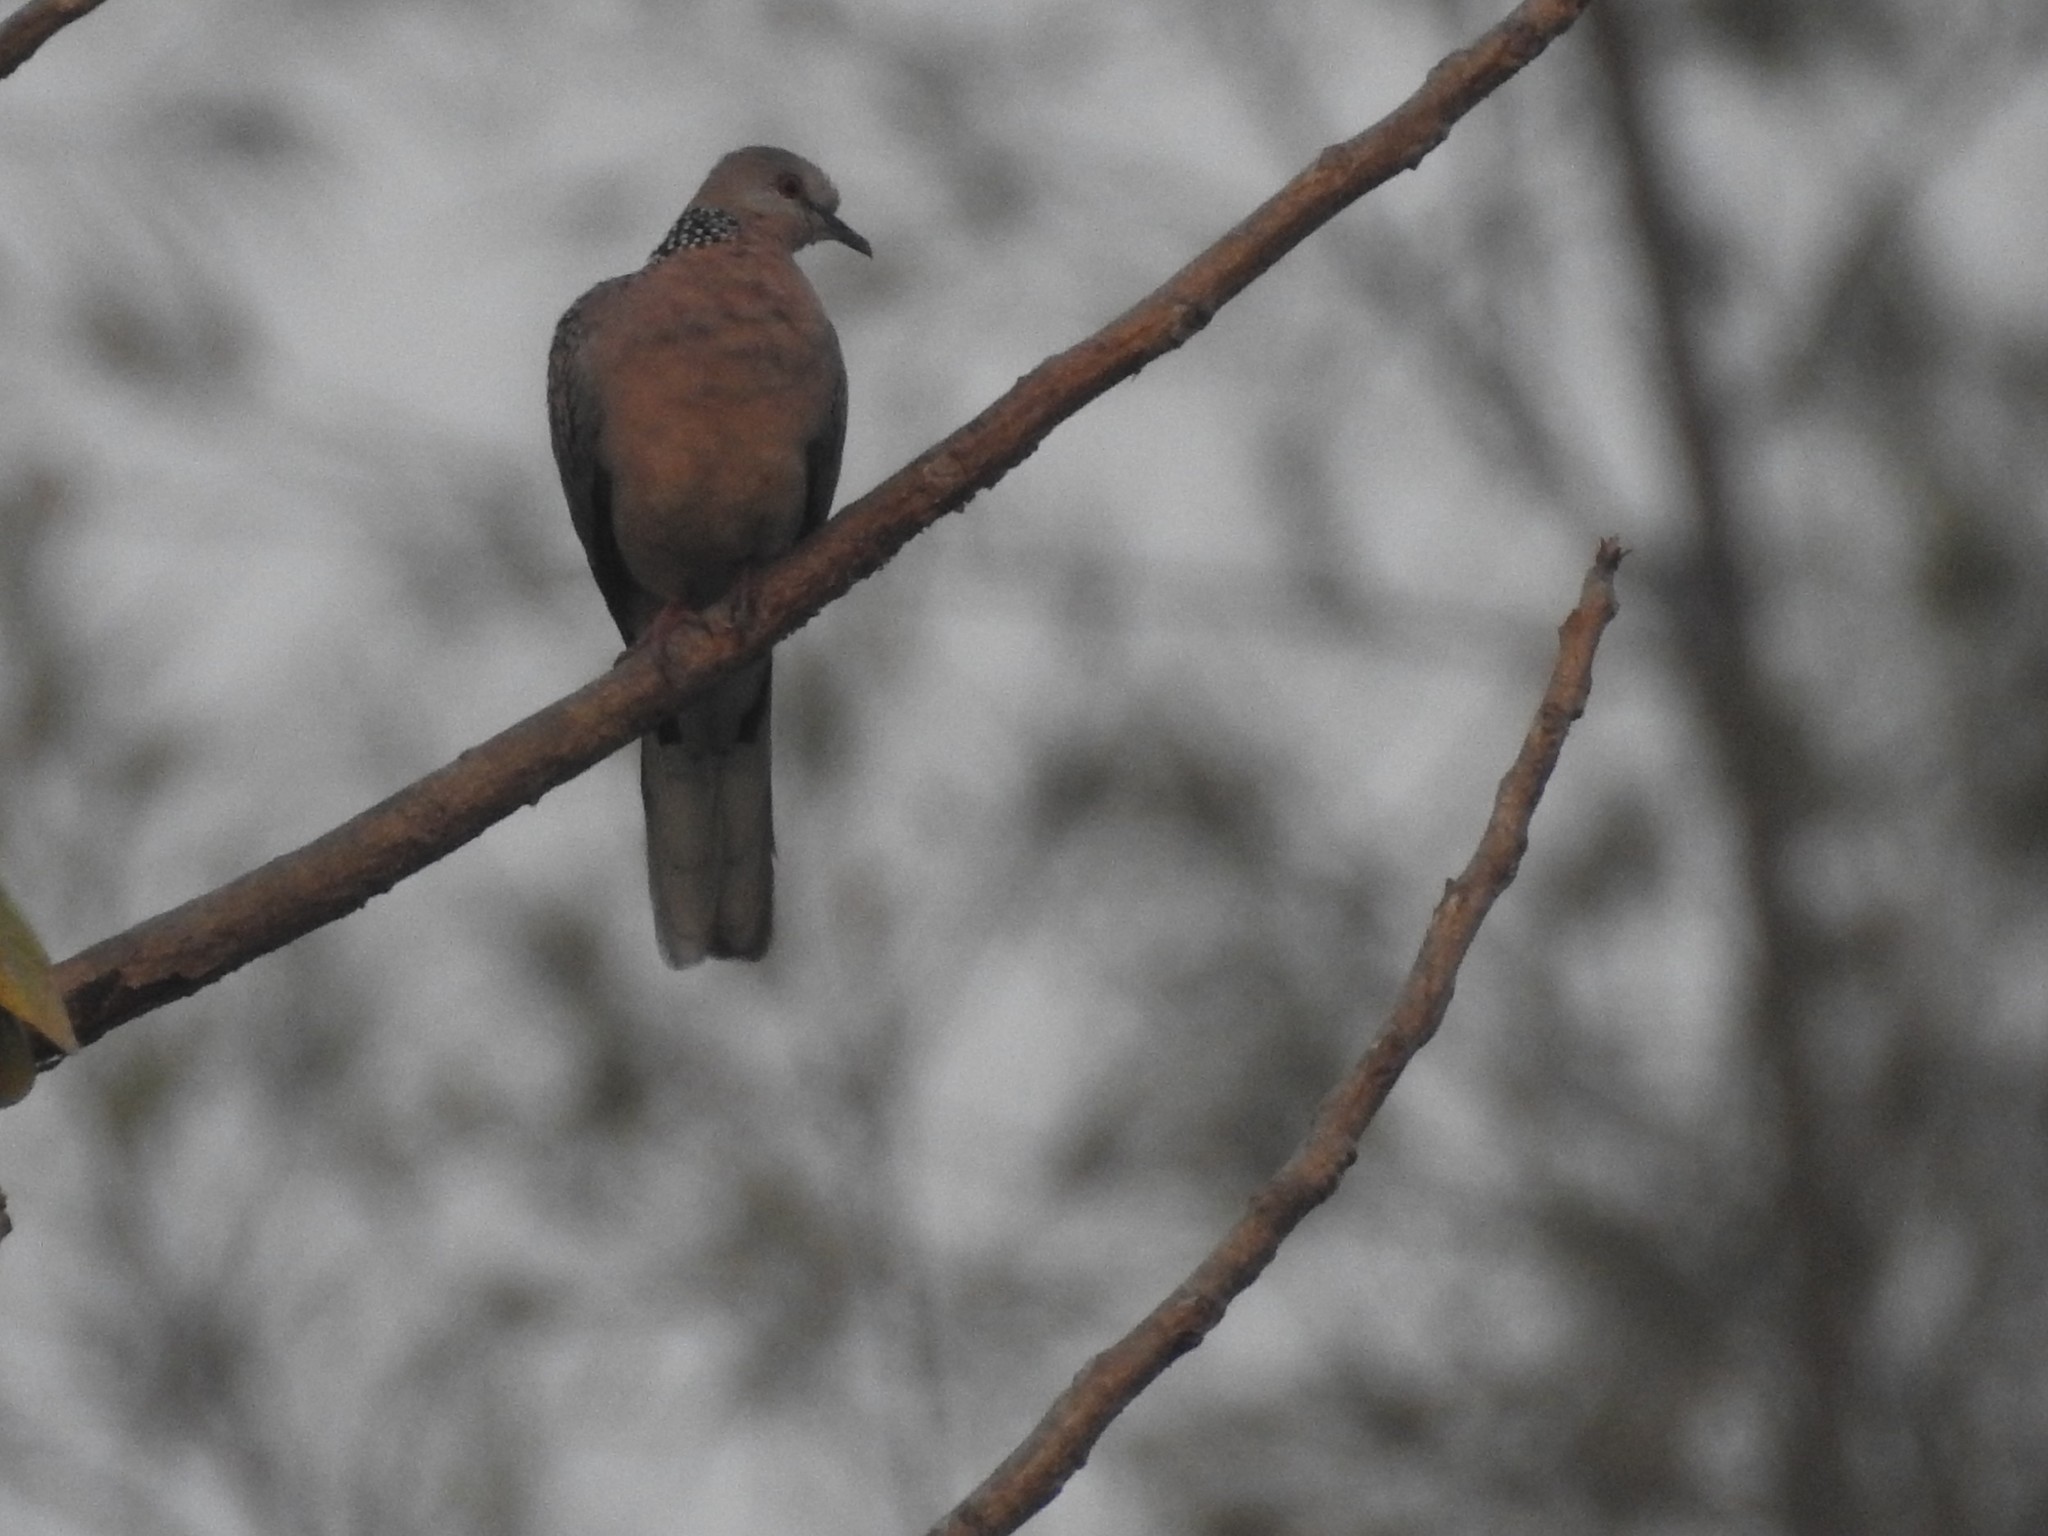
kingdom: Animalia
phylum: Chordata
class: Aves
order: Columbiformes
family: Columbidae
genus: Spilopelia
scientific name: Spilopelia chinensis
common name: Spotted dove
